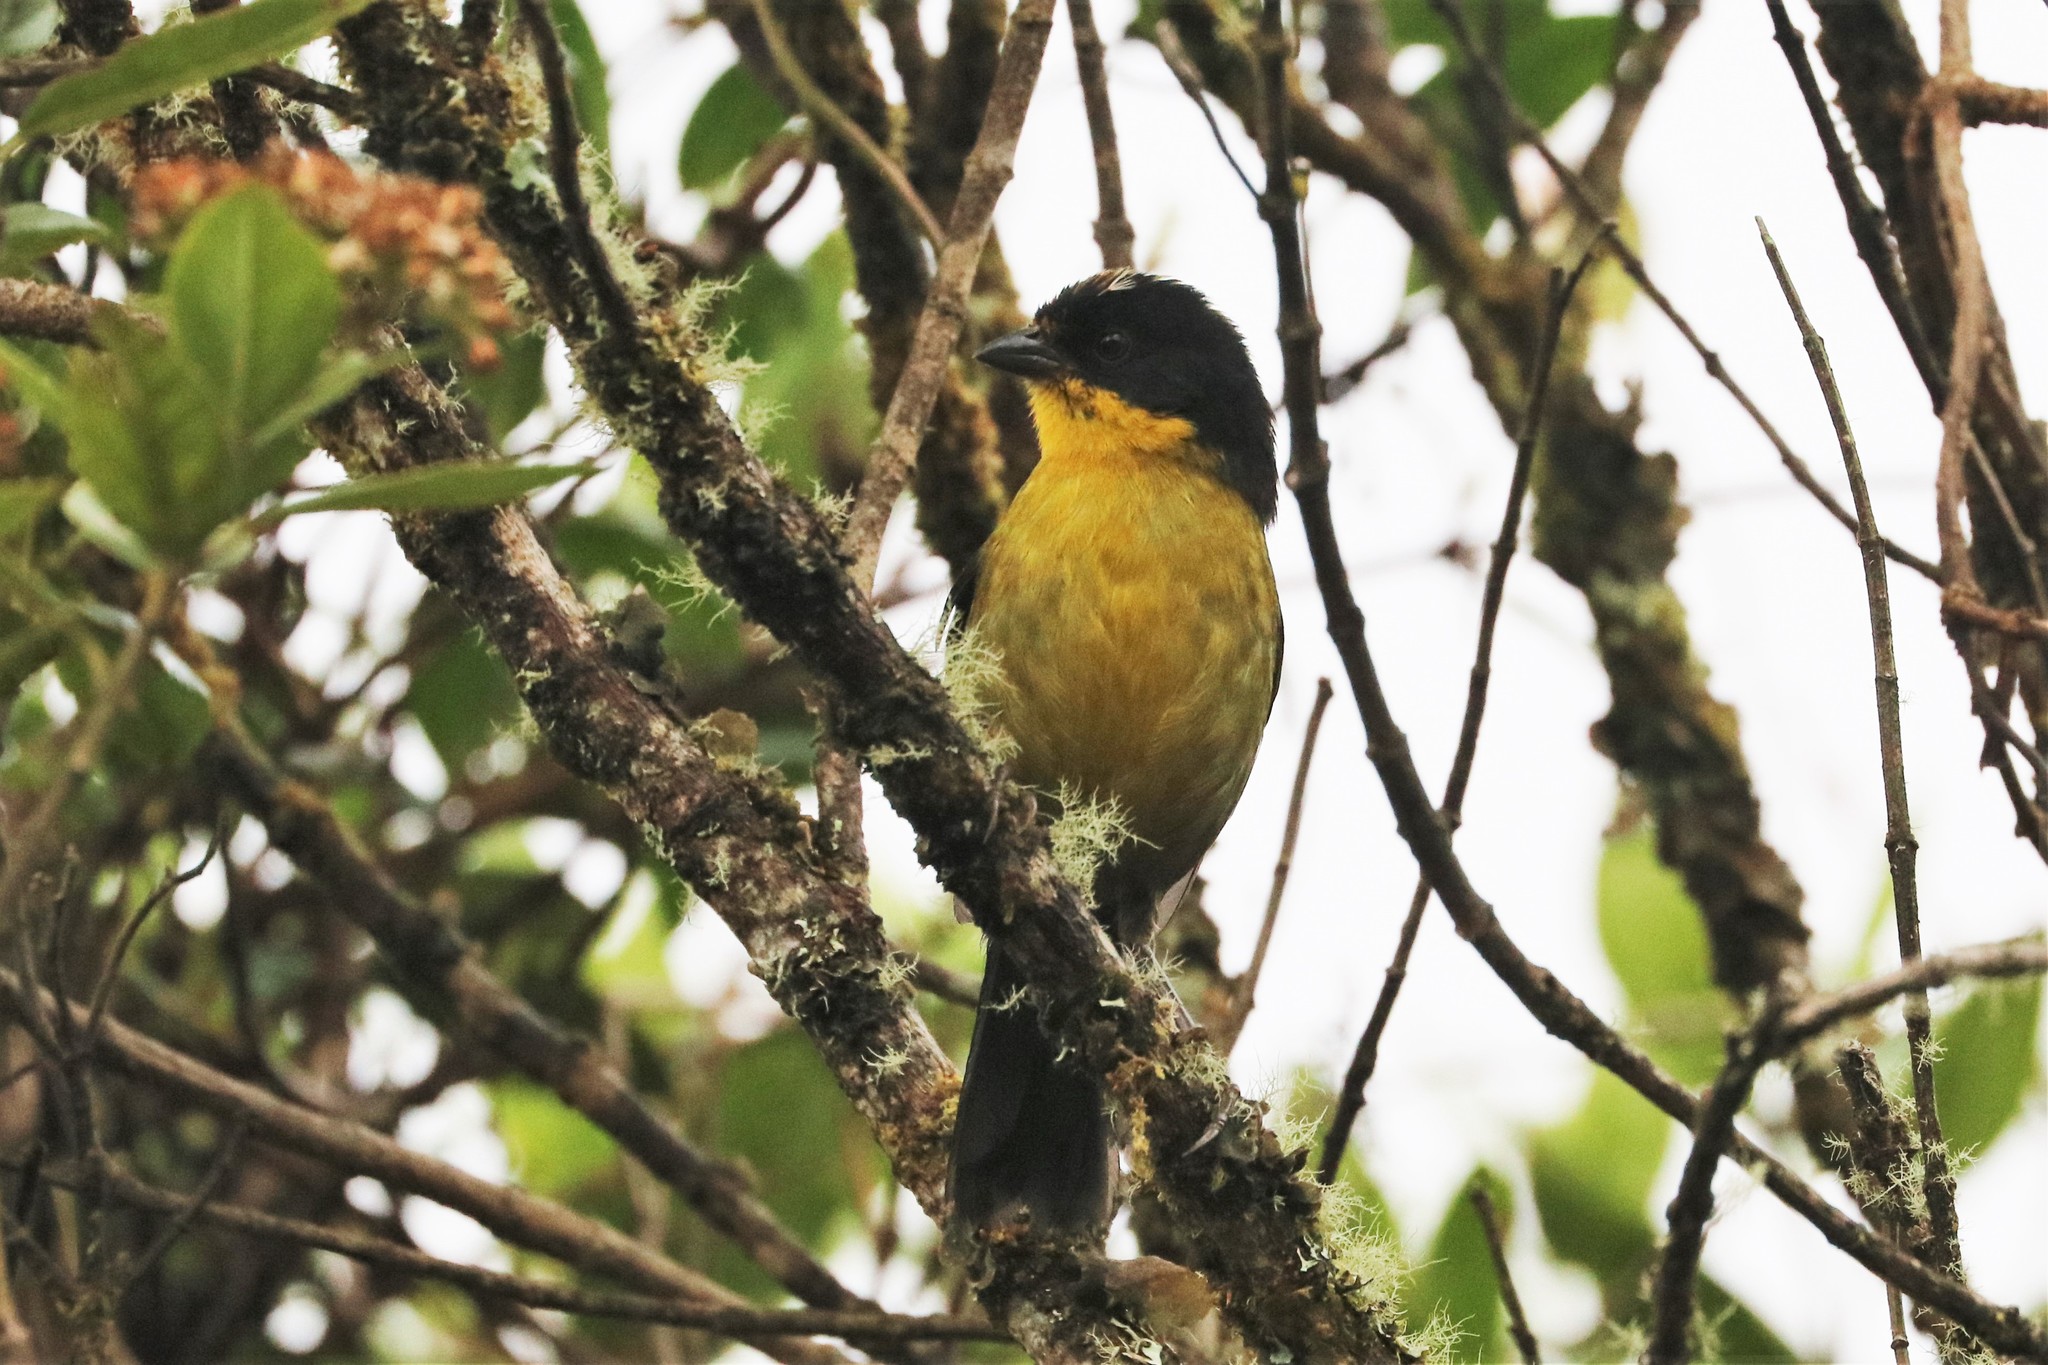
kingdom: Animalia
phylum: Chordata
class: Aves
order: Passeriformes
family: Passerellidae
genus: Atlapetes
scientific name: Atlapetes pallidinucha
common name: Pale-naped brushfinch
